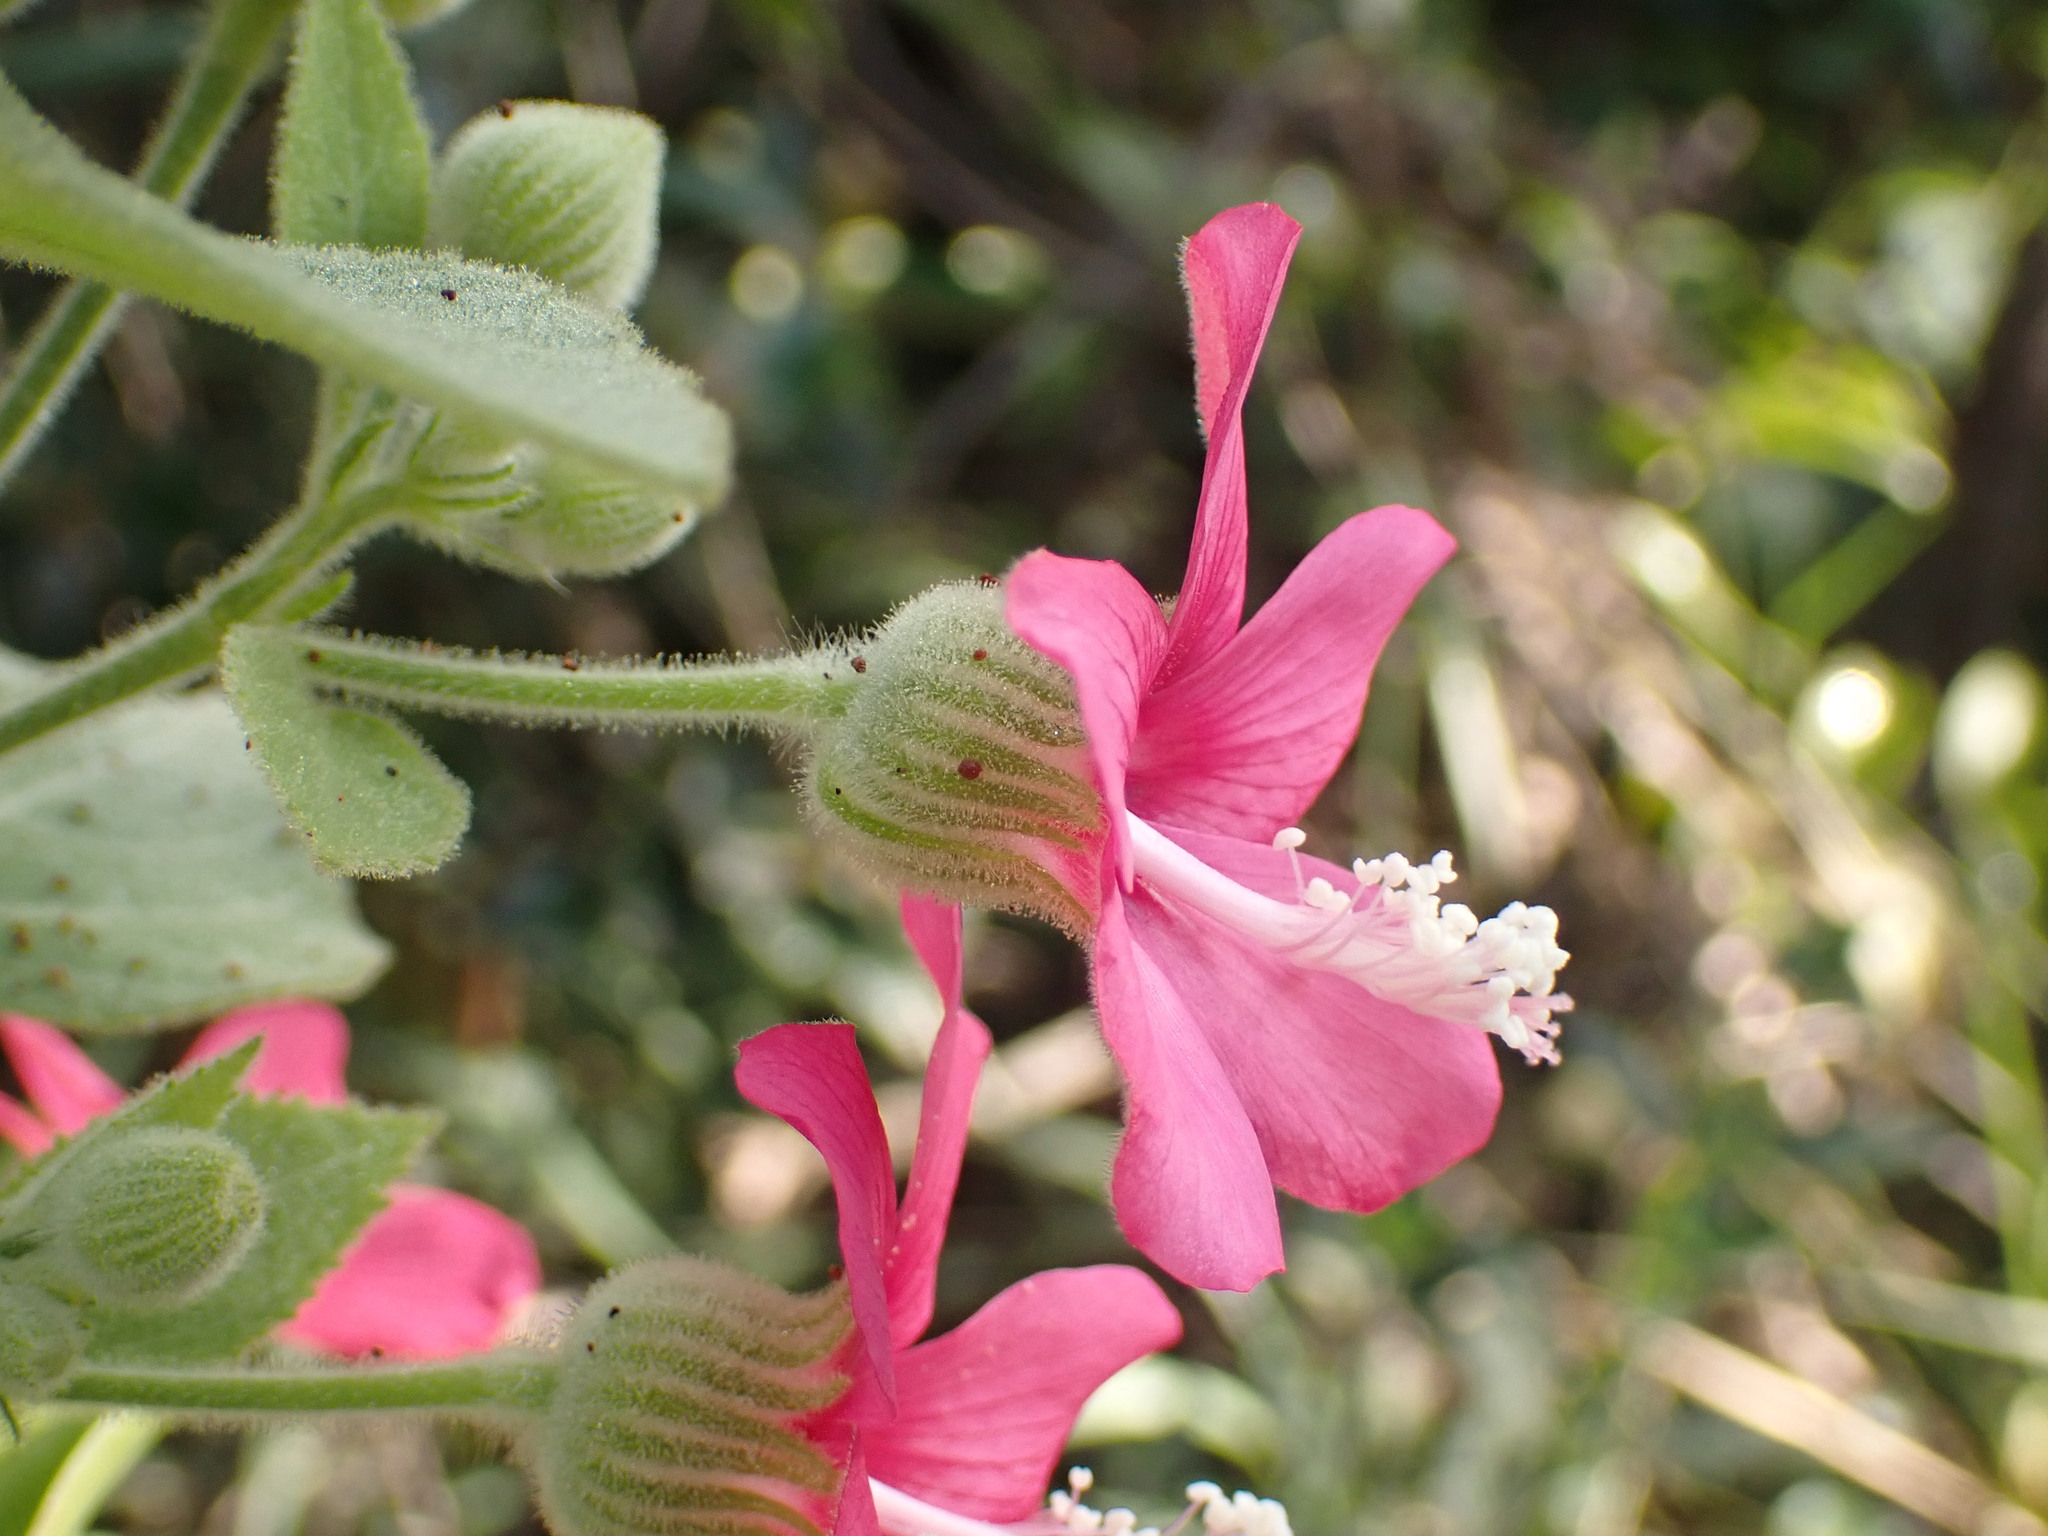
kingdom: Plantae
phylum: Tracheophyta
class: Magnoliopsida
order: Malvales
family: Malvaceae
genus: Pavonia
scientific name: Pavonia malacophylla
